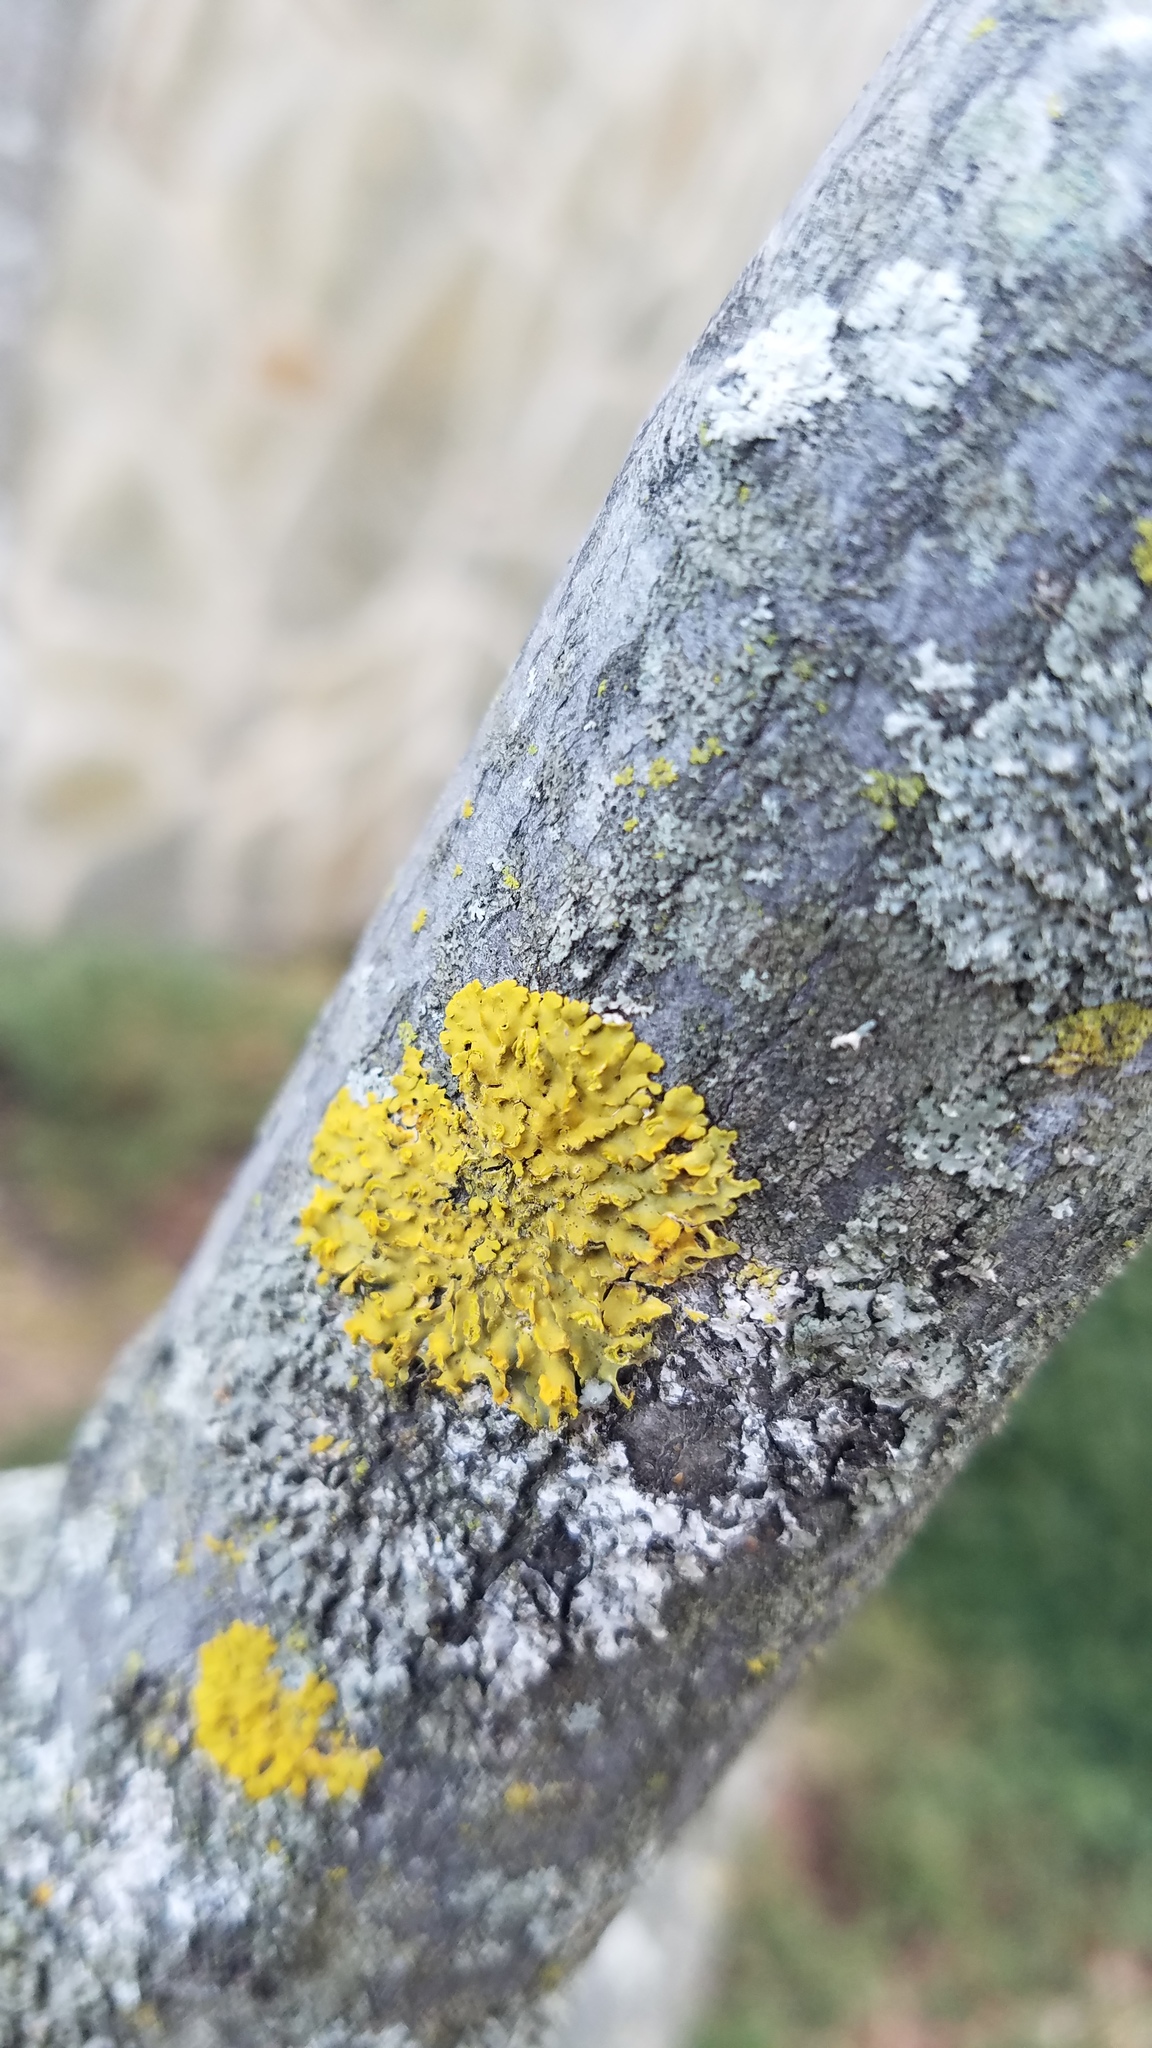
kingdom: Fungi
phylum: Ascomycota
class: Lecanoromycetes
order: Teloschistales
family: Teloschistaceae
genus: Oxneria
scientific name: Oxneria fallax
